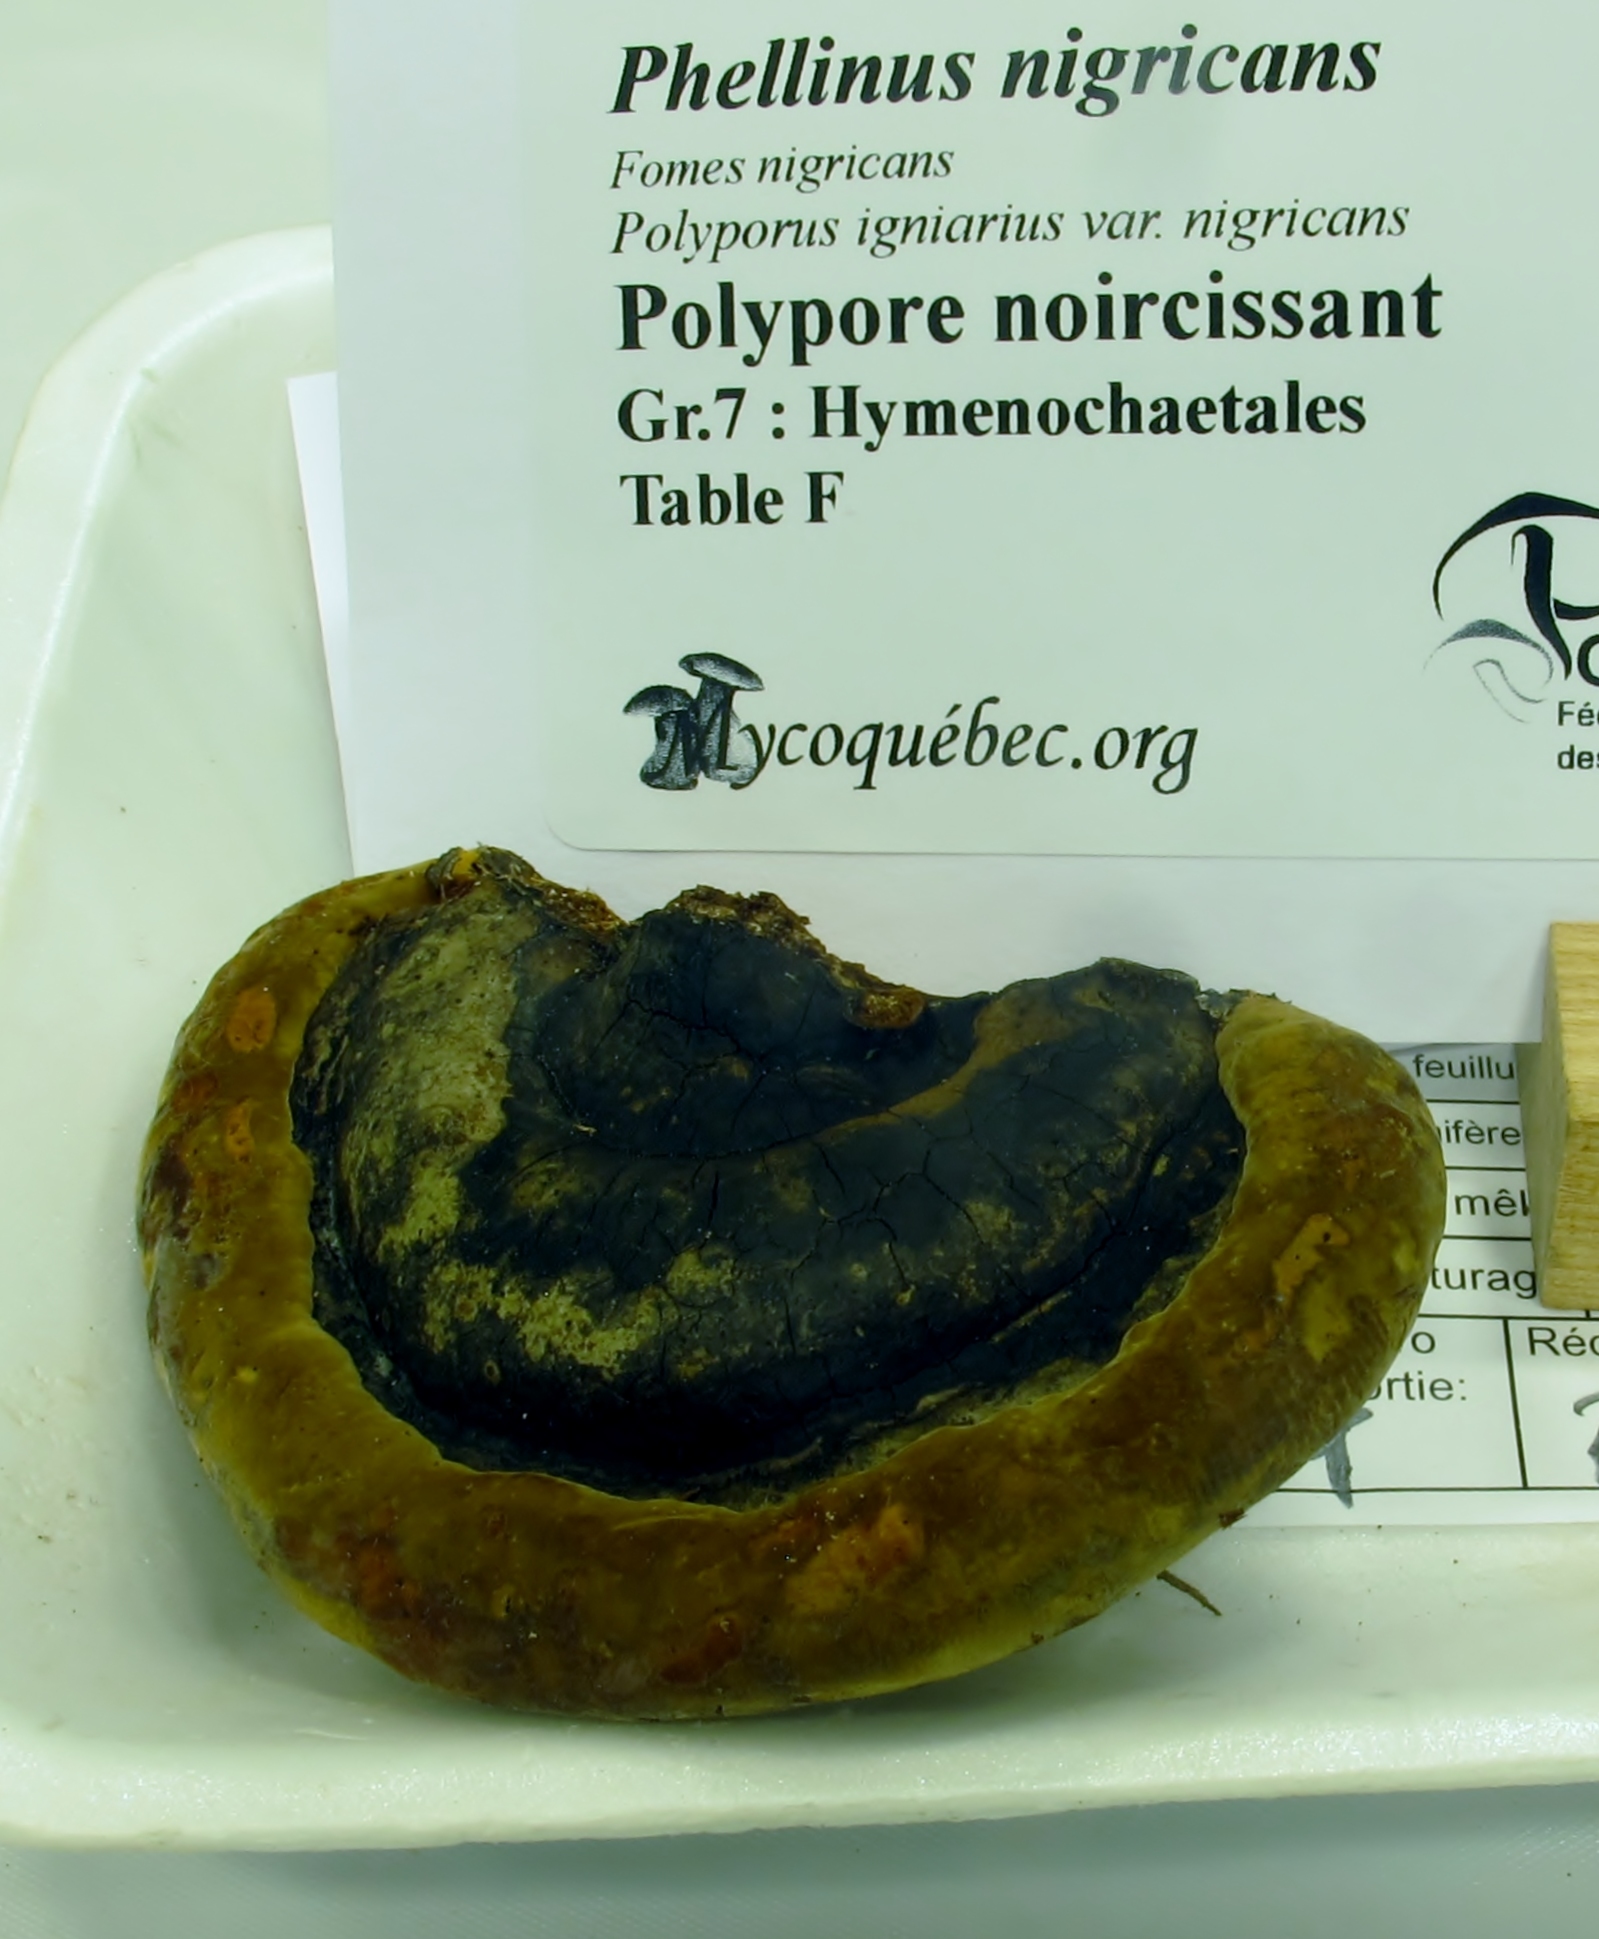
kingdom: Fungi
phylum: Basidiomycota
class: Agaricomycetes
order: Hymenochaetales
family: Hymenochaetaceae
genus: Phellinus
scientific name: Phellinus igniarius
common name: Willow bracket
